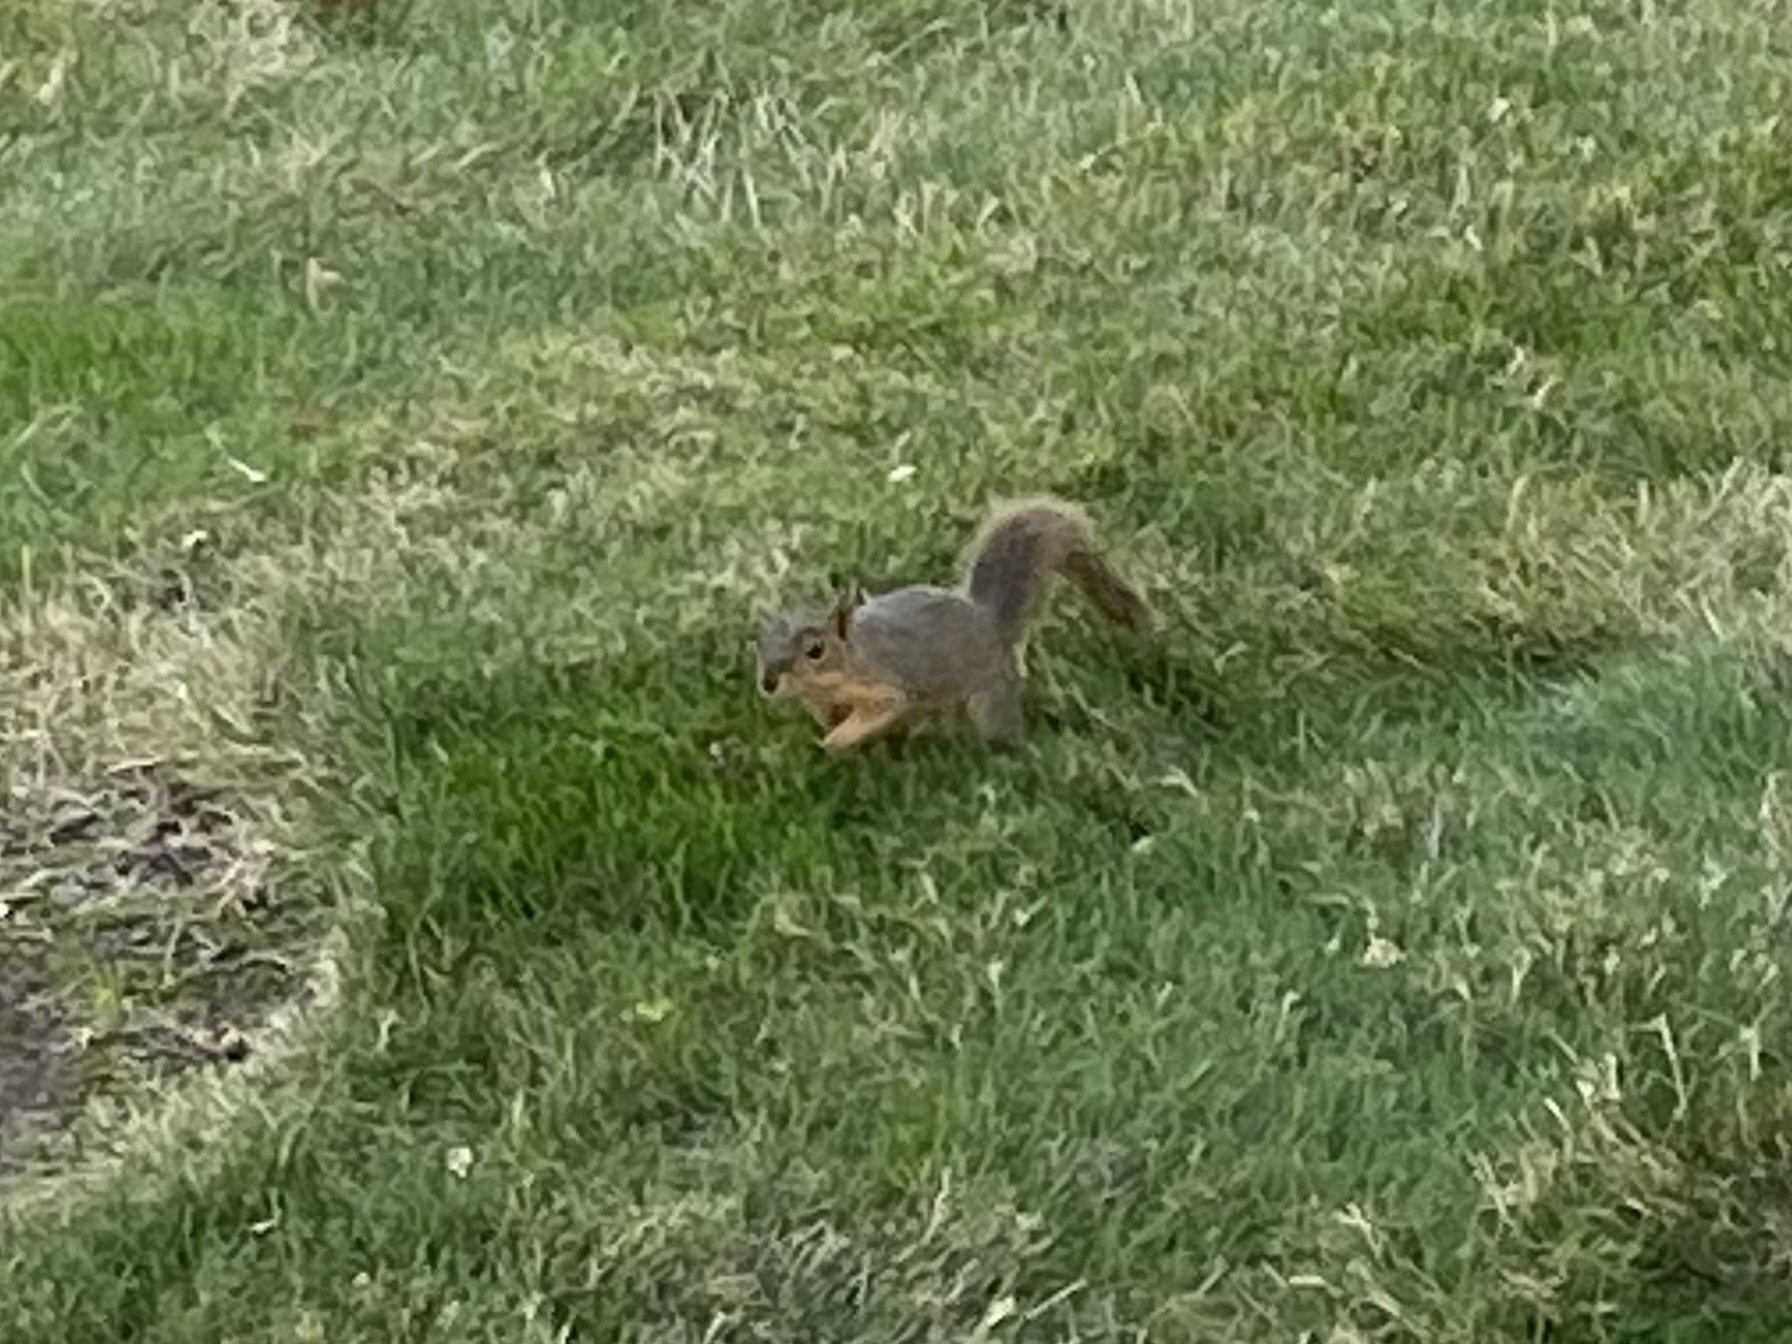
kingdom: Animalia
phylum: Chordata
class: Mammalia
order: Rodentia
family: Sciuridae
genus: Sciurus
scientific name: Sciurus niger
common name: Fox squirrel
